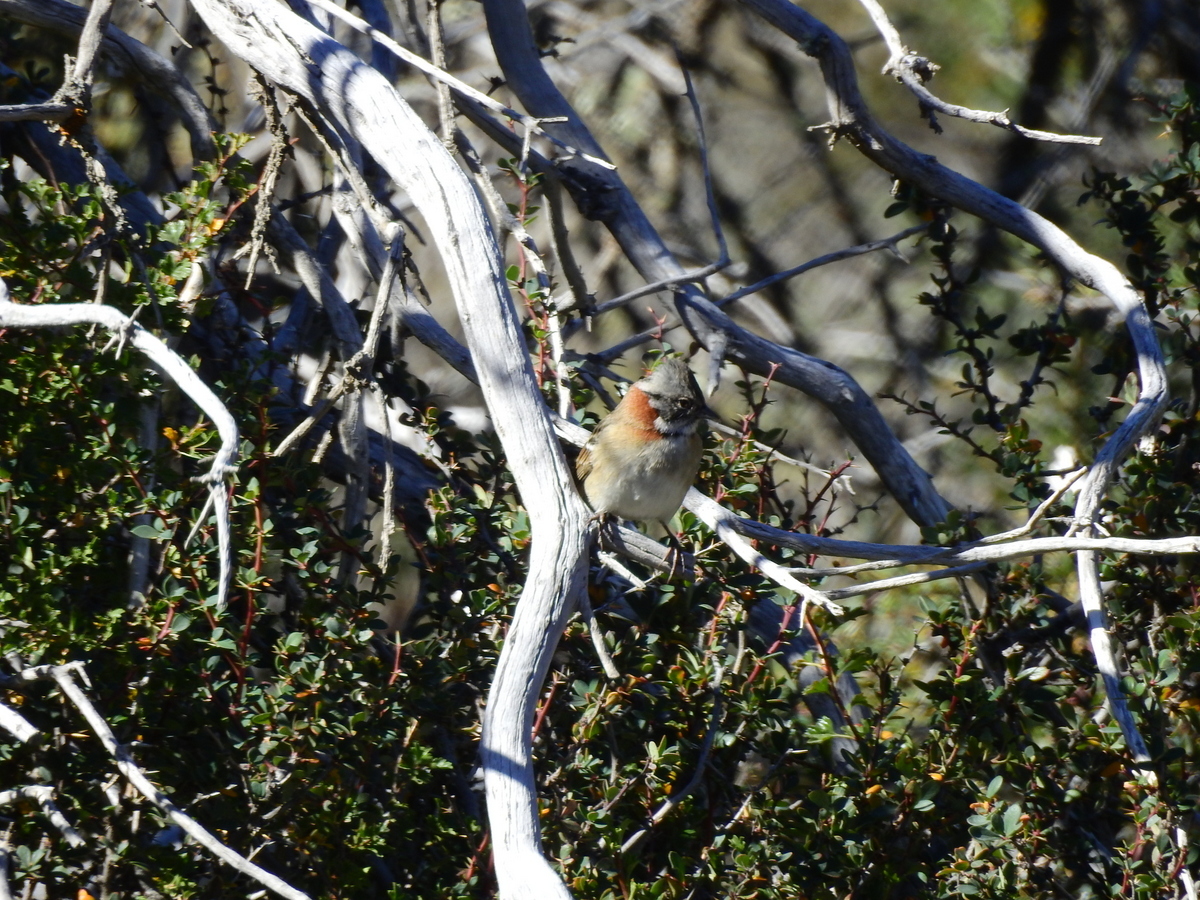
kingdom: Animalia
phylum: Chordata
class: Aves
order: Passeriformes
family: Passerellidae
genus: Zonotrichia
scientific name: Zonotrichia capensis
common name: Rufous-collared sparrow
